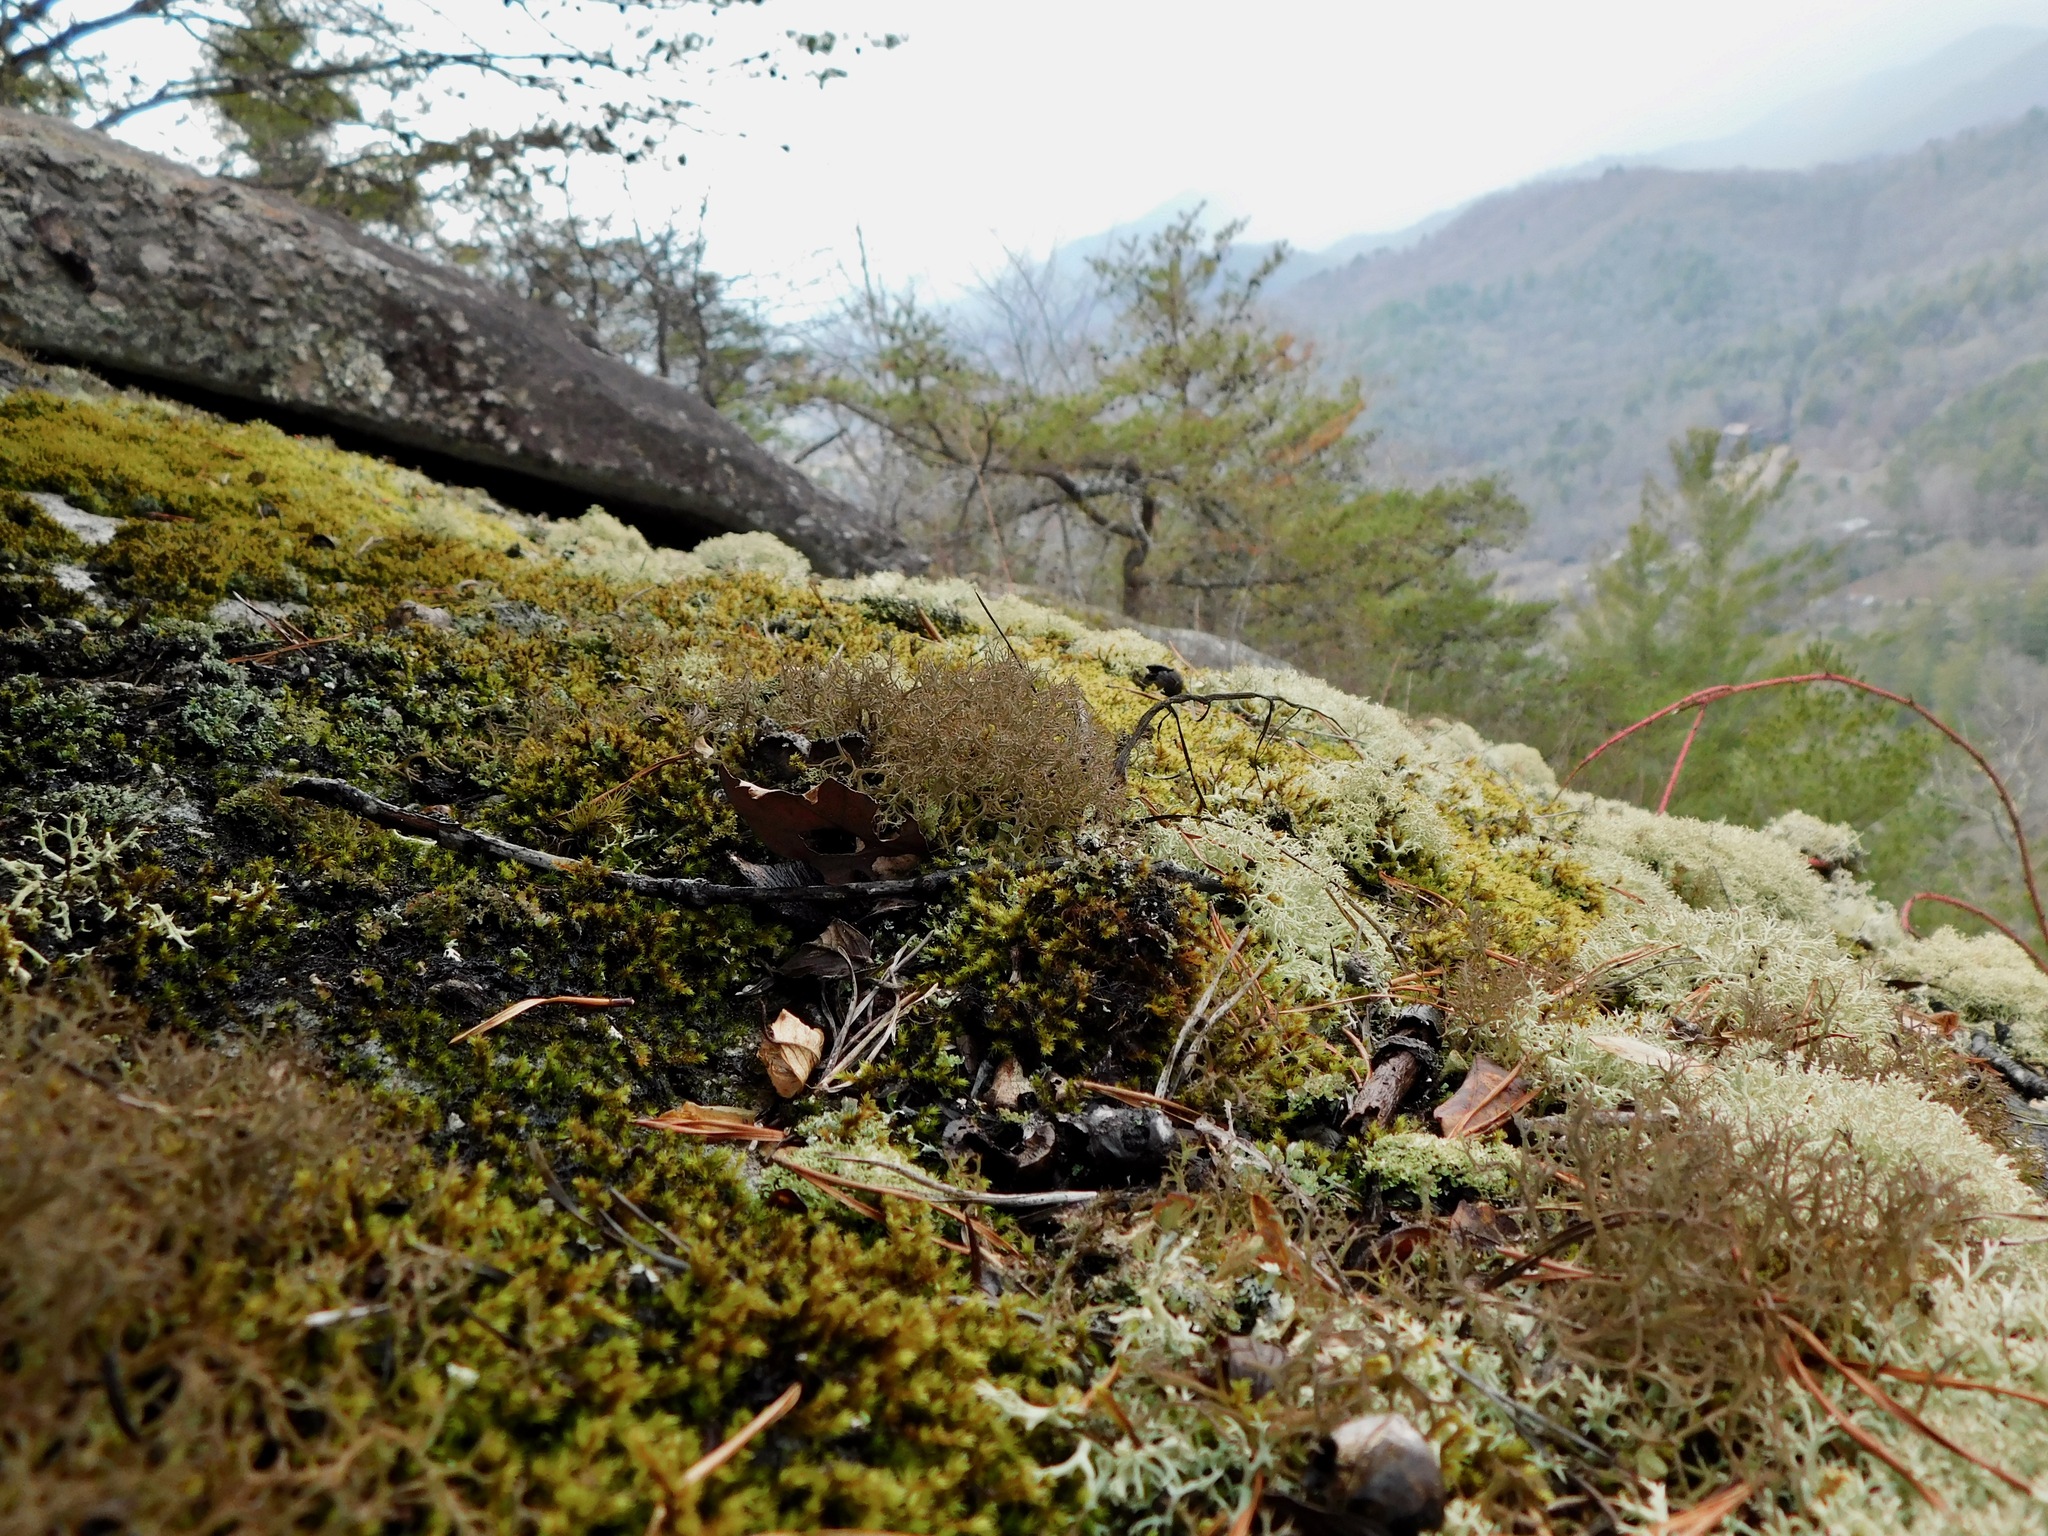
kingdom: Fungi
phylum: Ascomycota
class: Lecanoromycetes
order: Lecanorales
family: Cladoniaceae
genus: Cladonia
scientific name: Cladonia appalachensis
